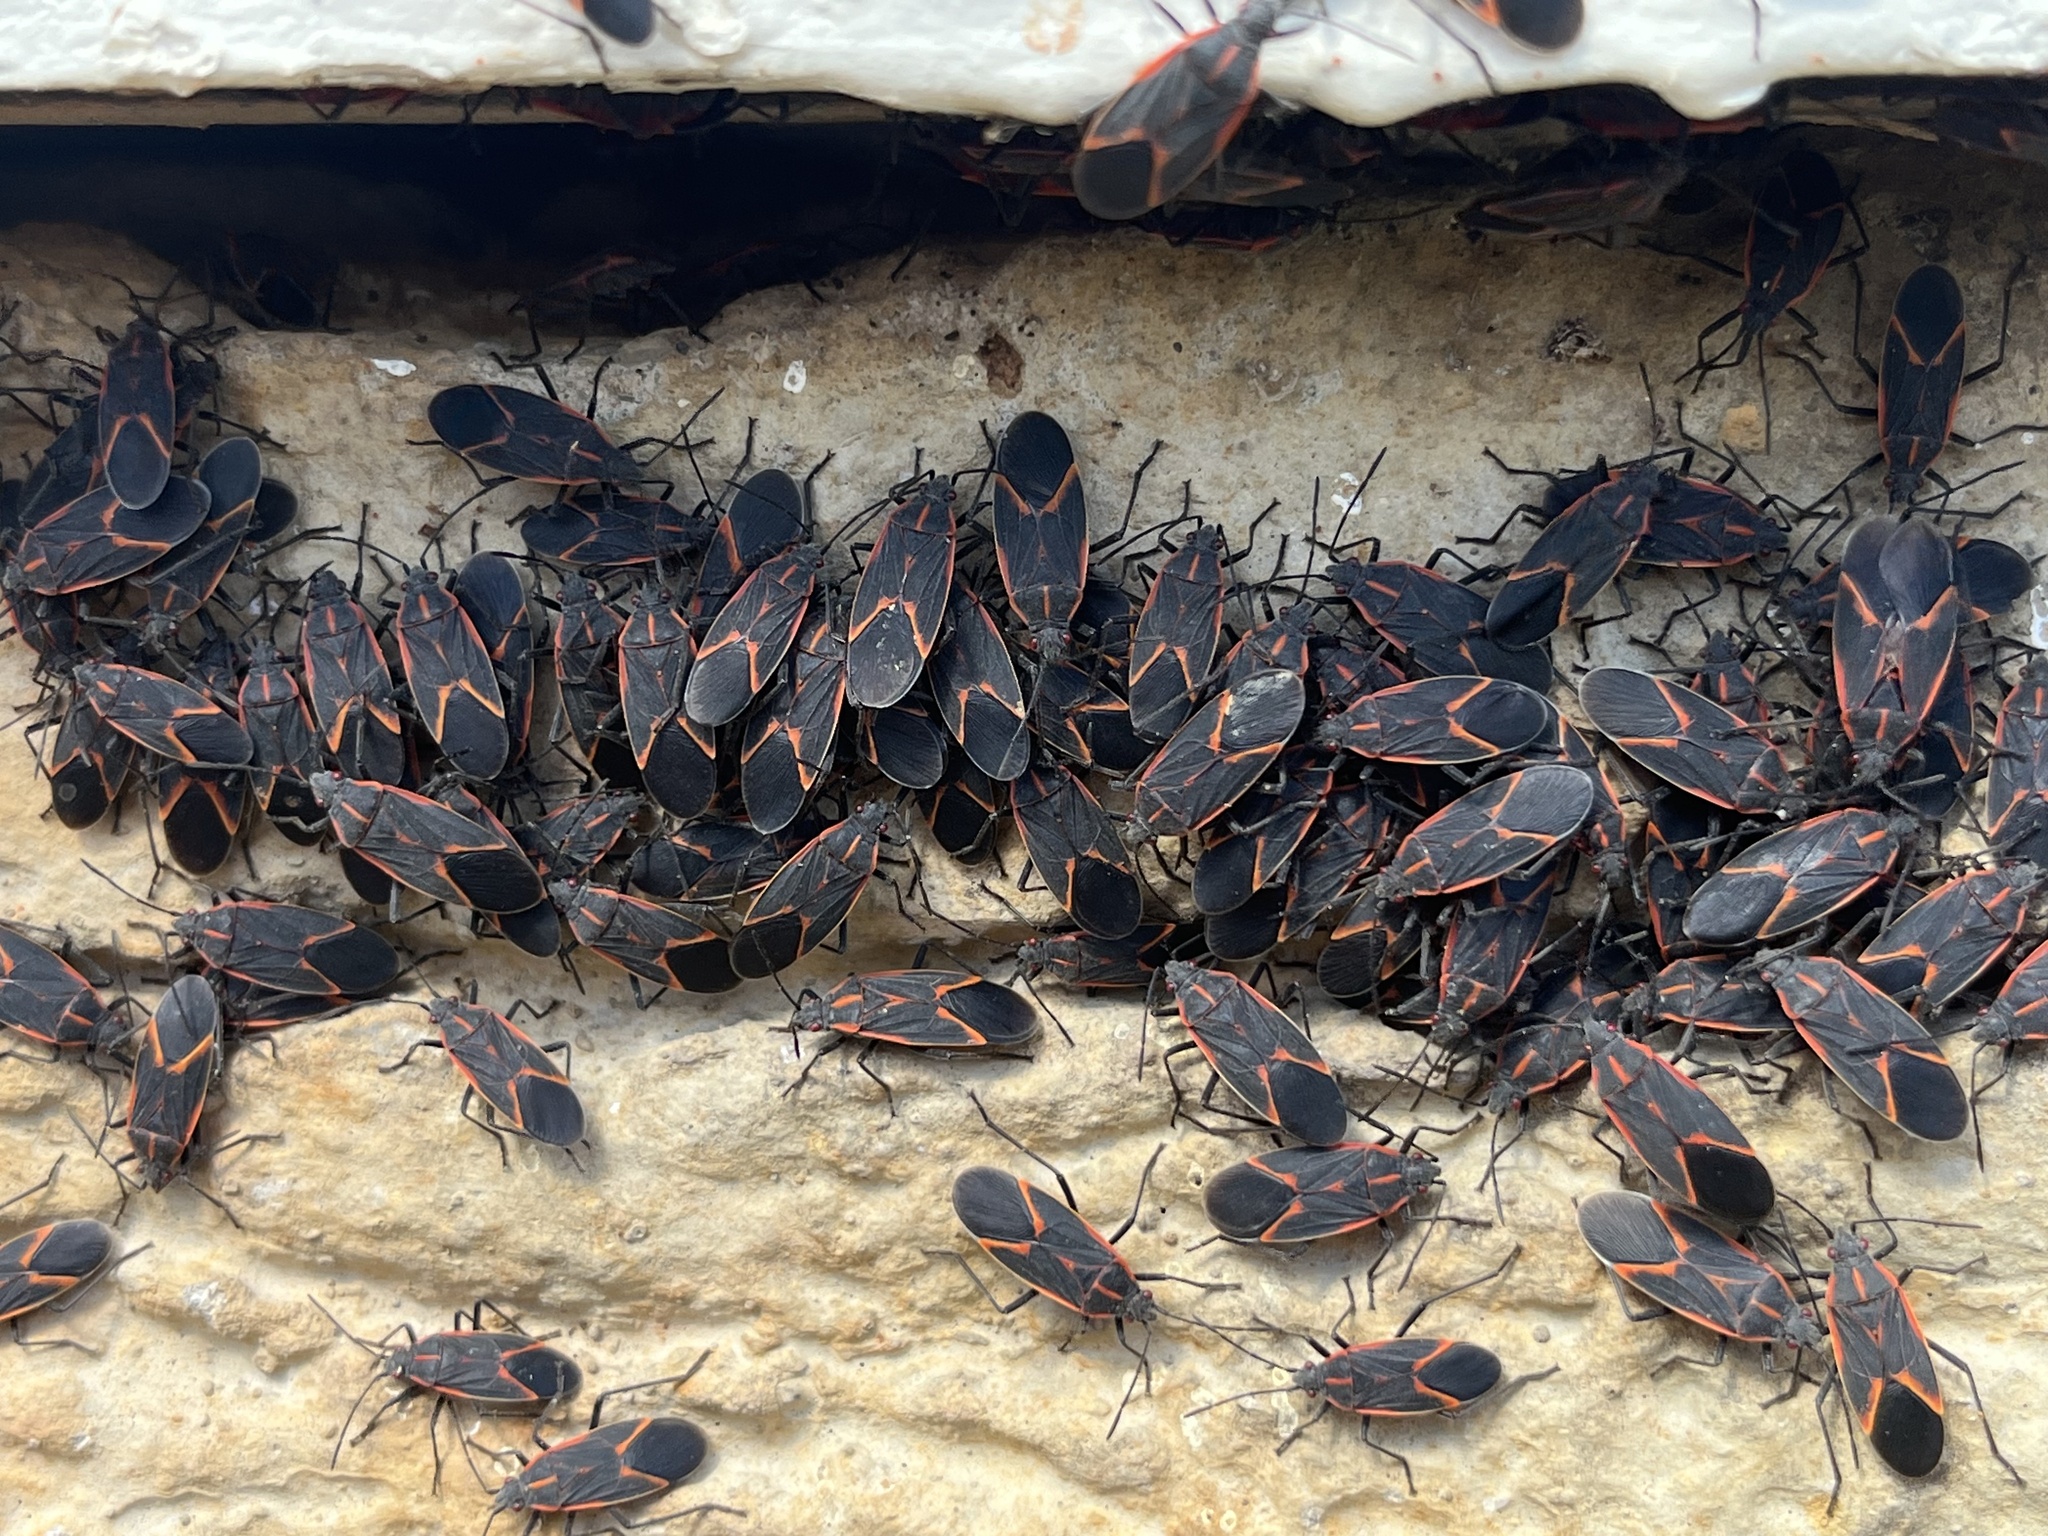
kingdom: Animalia
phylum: Arthropoda
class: Insecta
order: Hemiptera
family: Rhopalidae
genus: Boisea
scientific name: Boisea trivittata
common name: Boxelder bug
